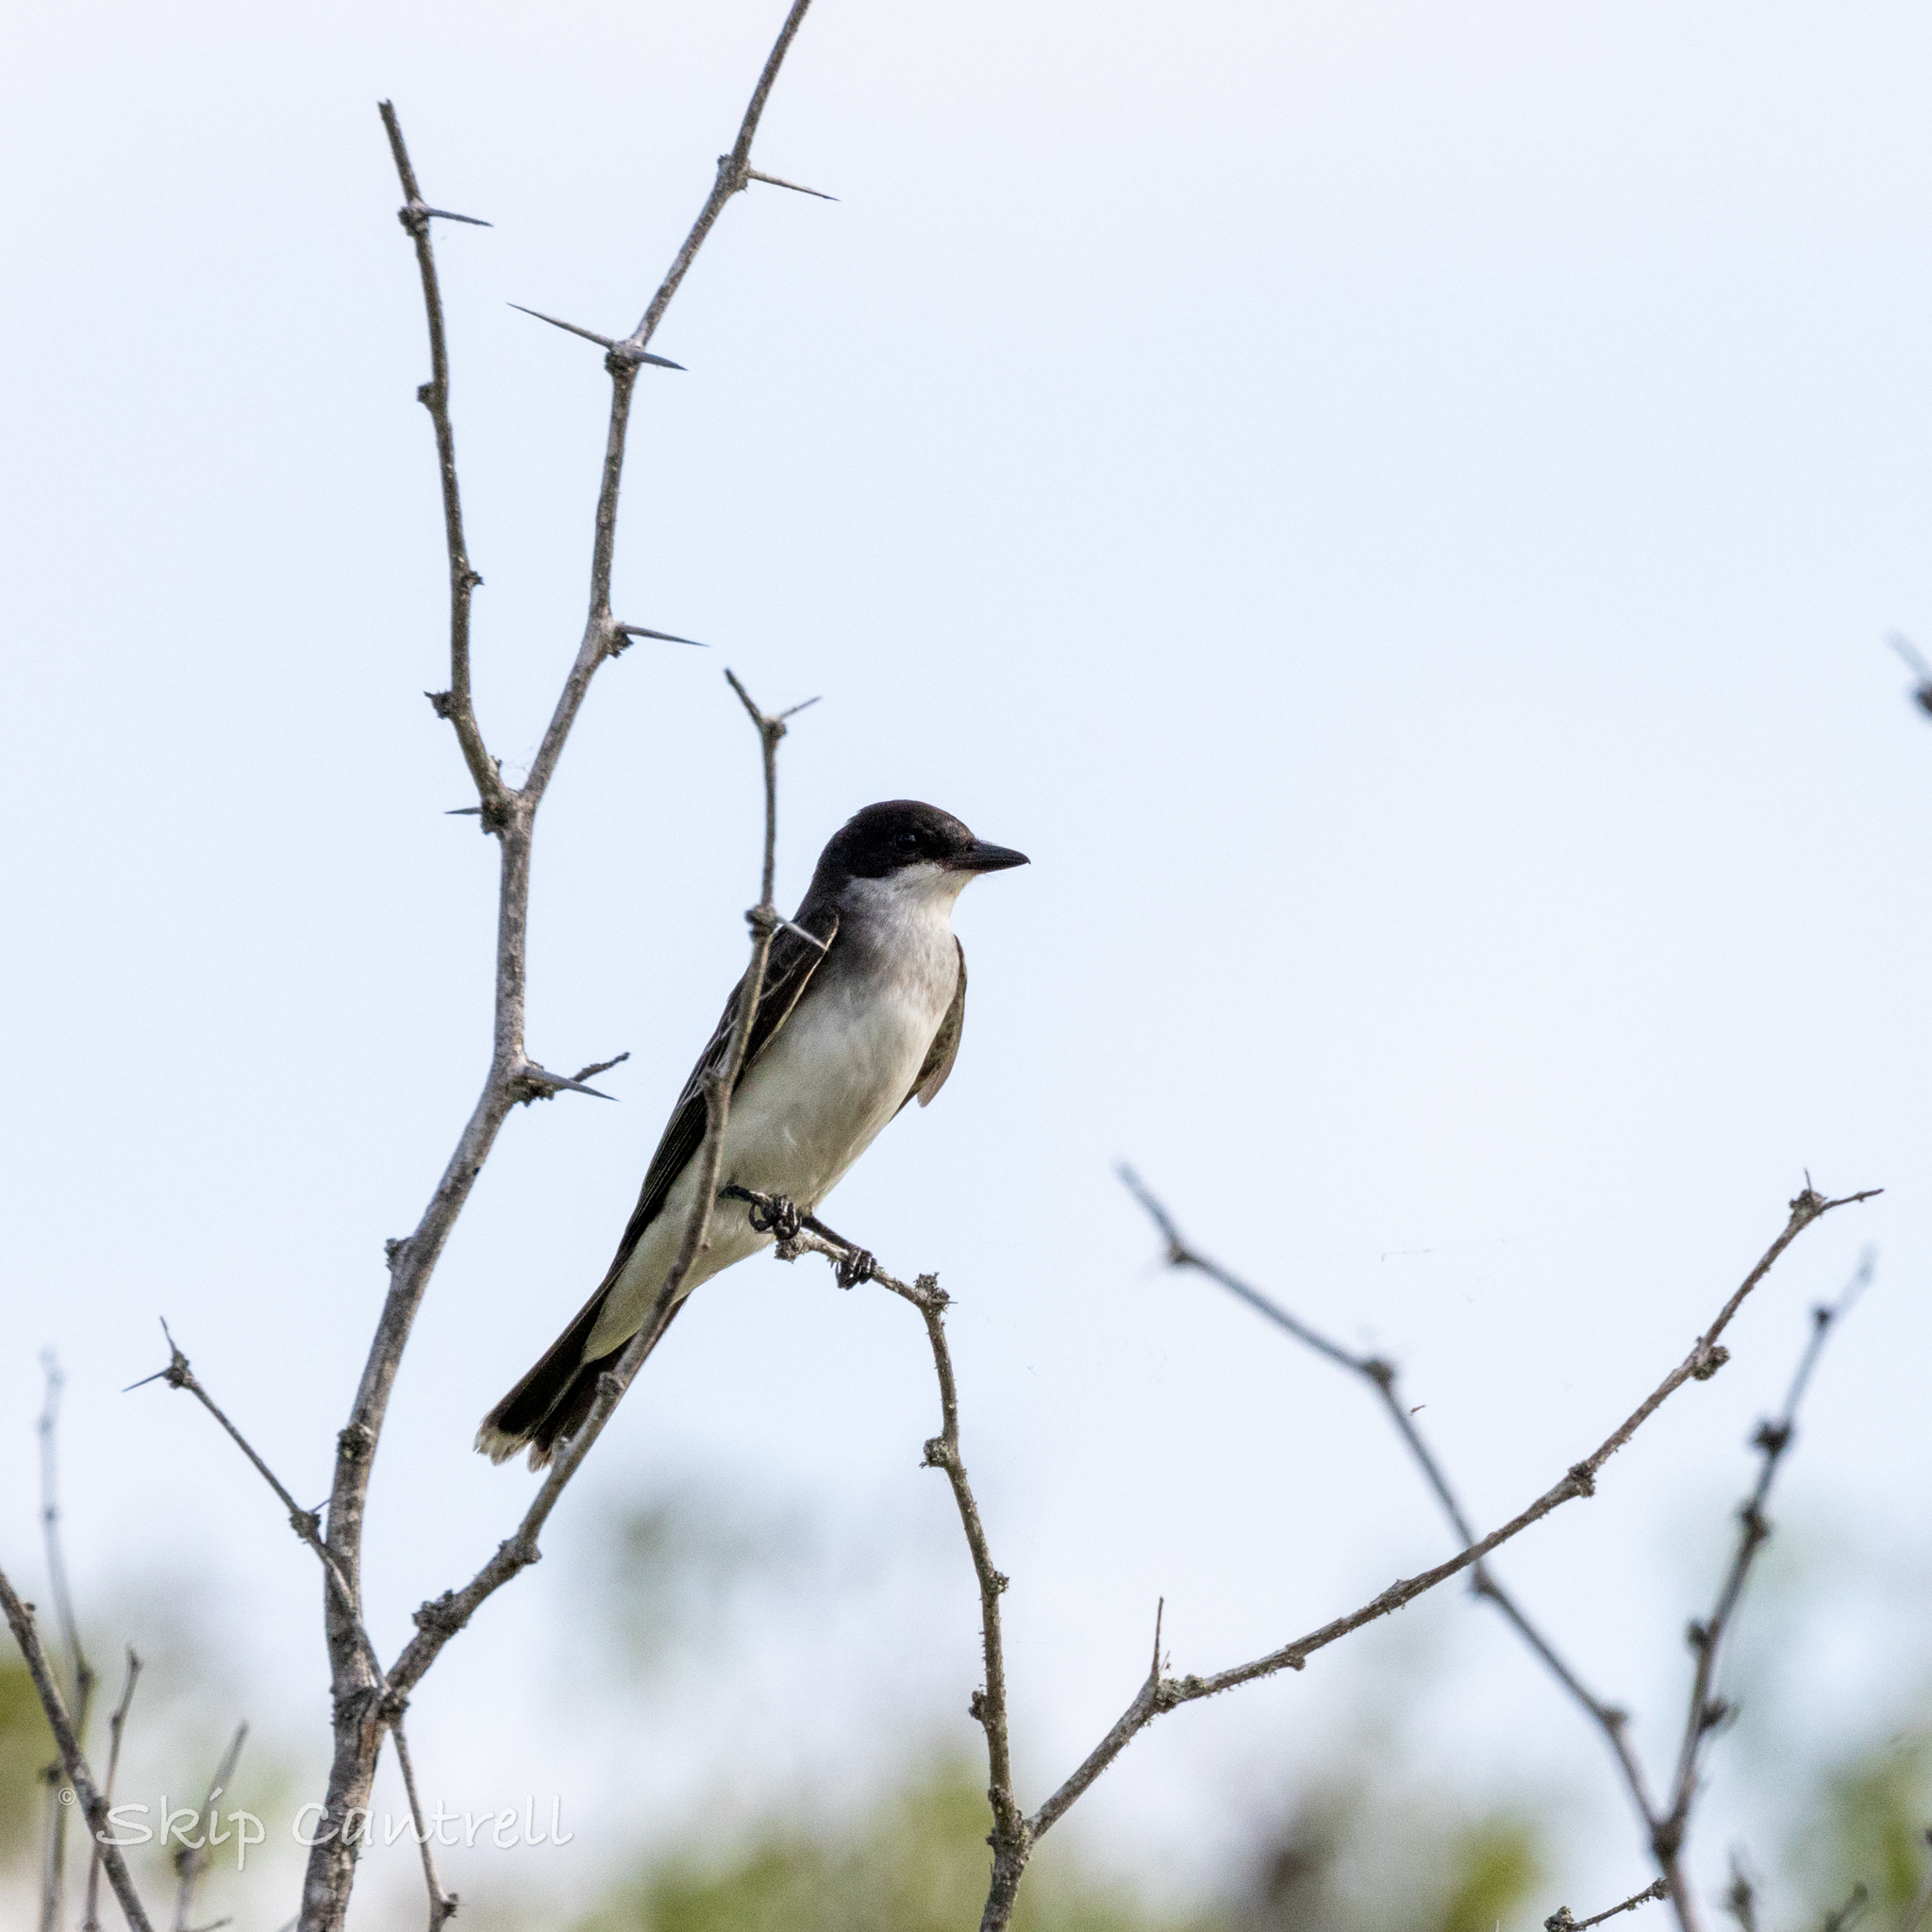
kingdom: Animalia
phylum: Chordata
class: Aves
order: Passeriformes
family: Tyrannidae
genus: Tyrannus
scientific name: Tyrannus tyrannus
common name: Eastern kingbird
